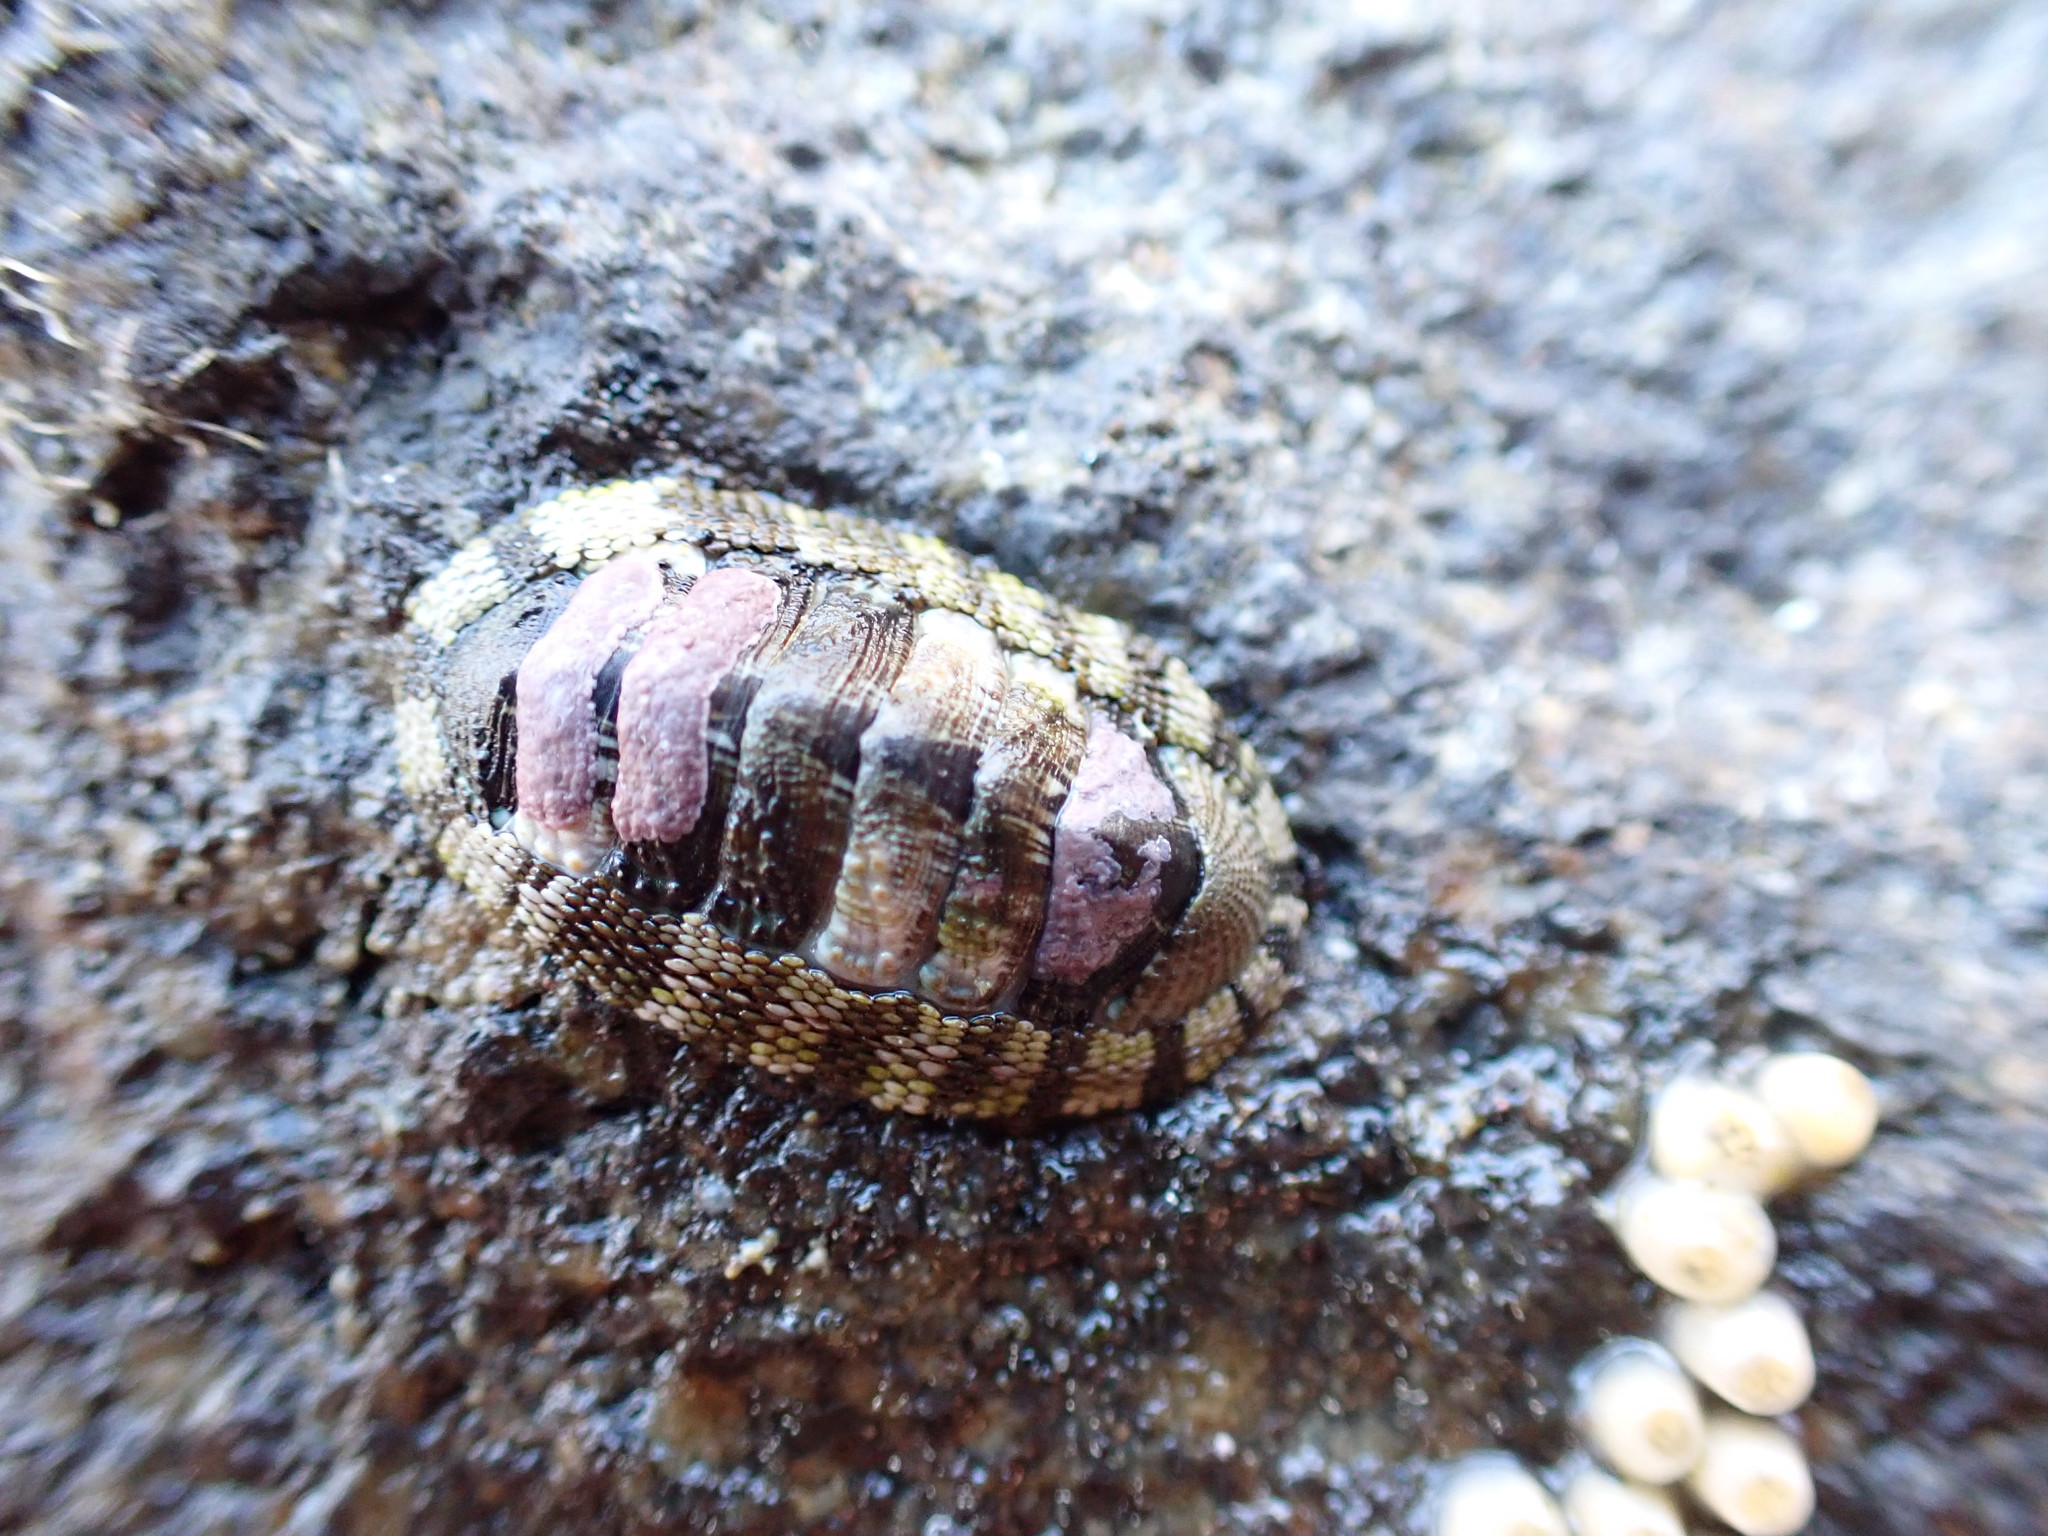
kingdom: Animalia
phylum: Mollusca
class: Polyplacophora
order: Chitonida
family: Chitonidae
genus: Sypharochiton
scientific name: Sypharochiton pelliserpentis
